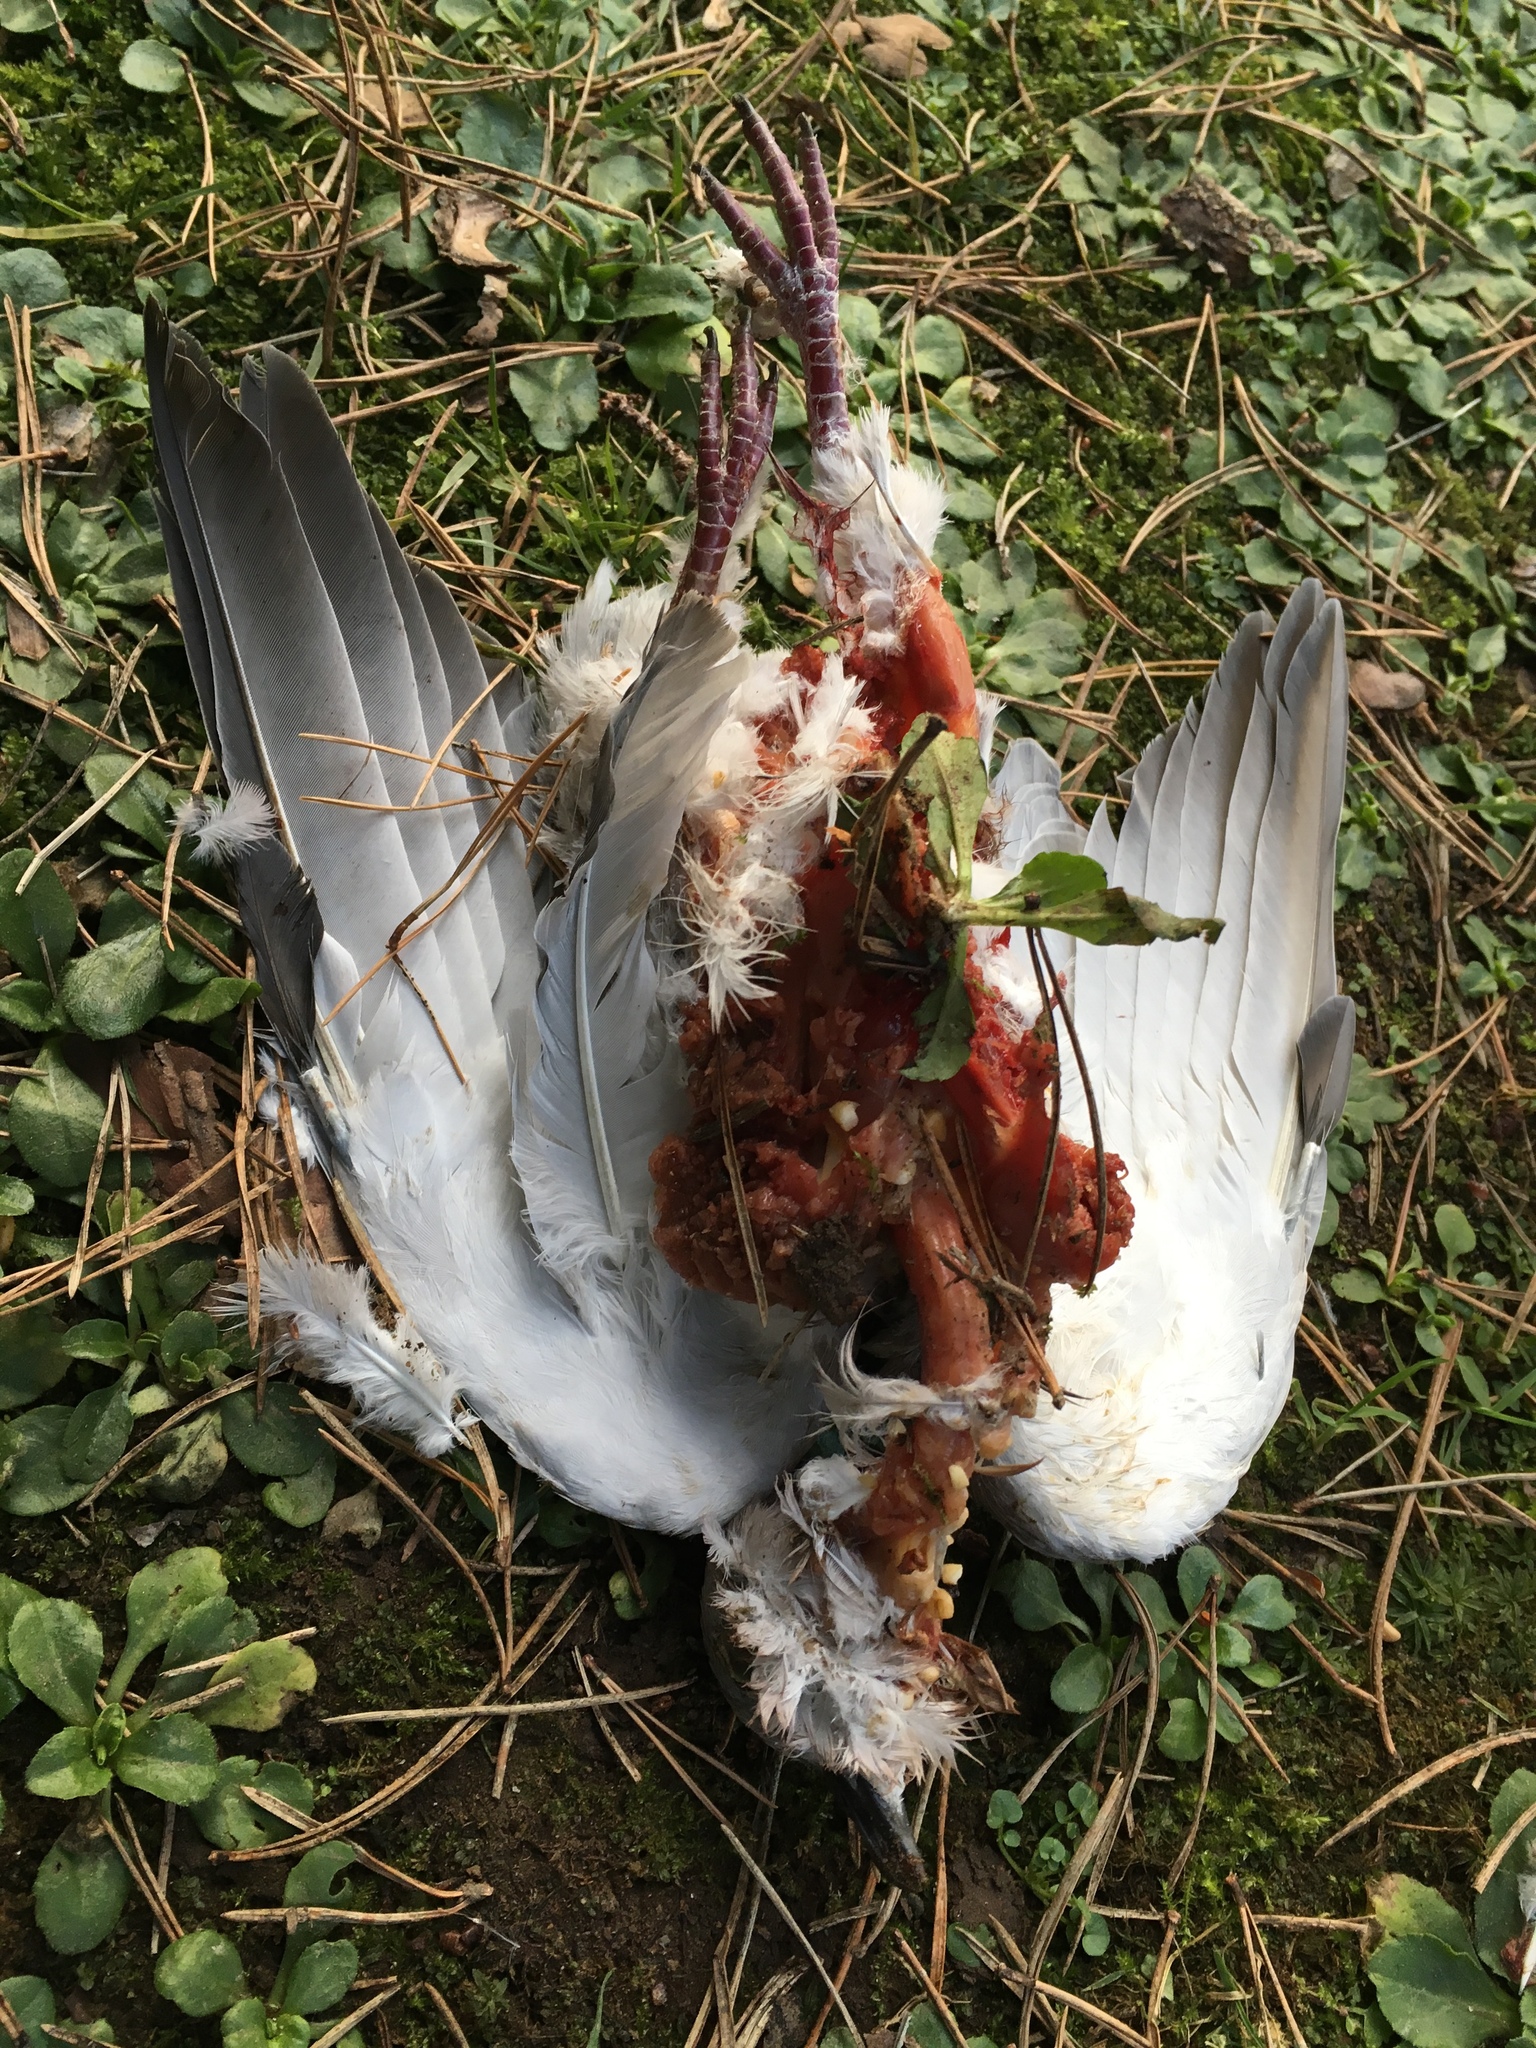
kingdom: Animalia
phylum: Chordata
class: Aves
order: Columbiformes
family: Columbidae
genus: Streptopelia
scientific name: Streptopelia decaocto
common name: Eurasian collared dove
